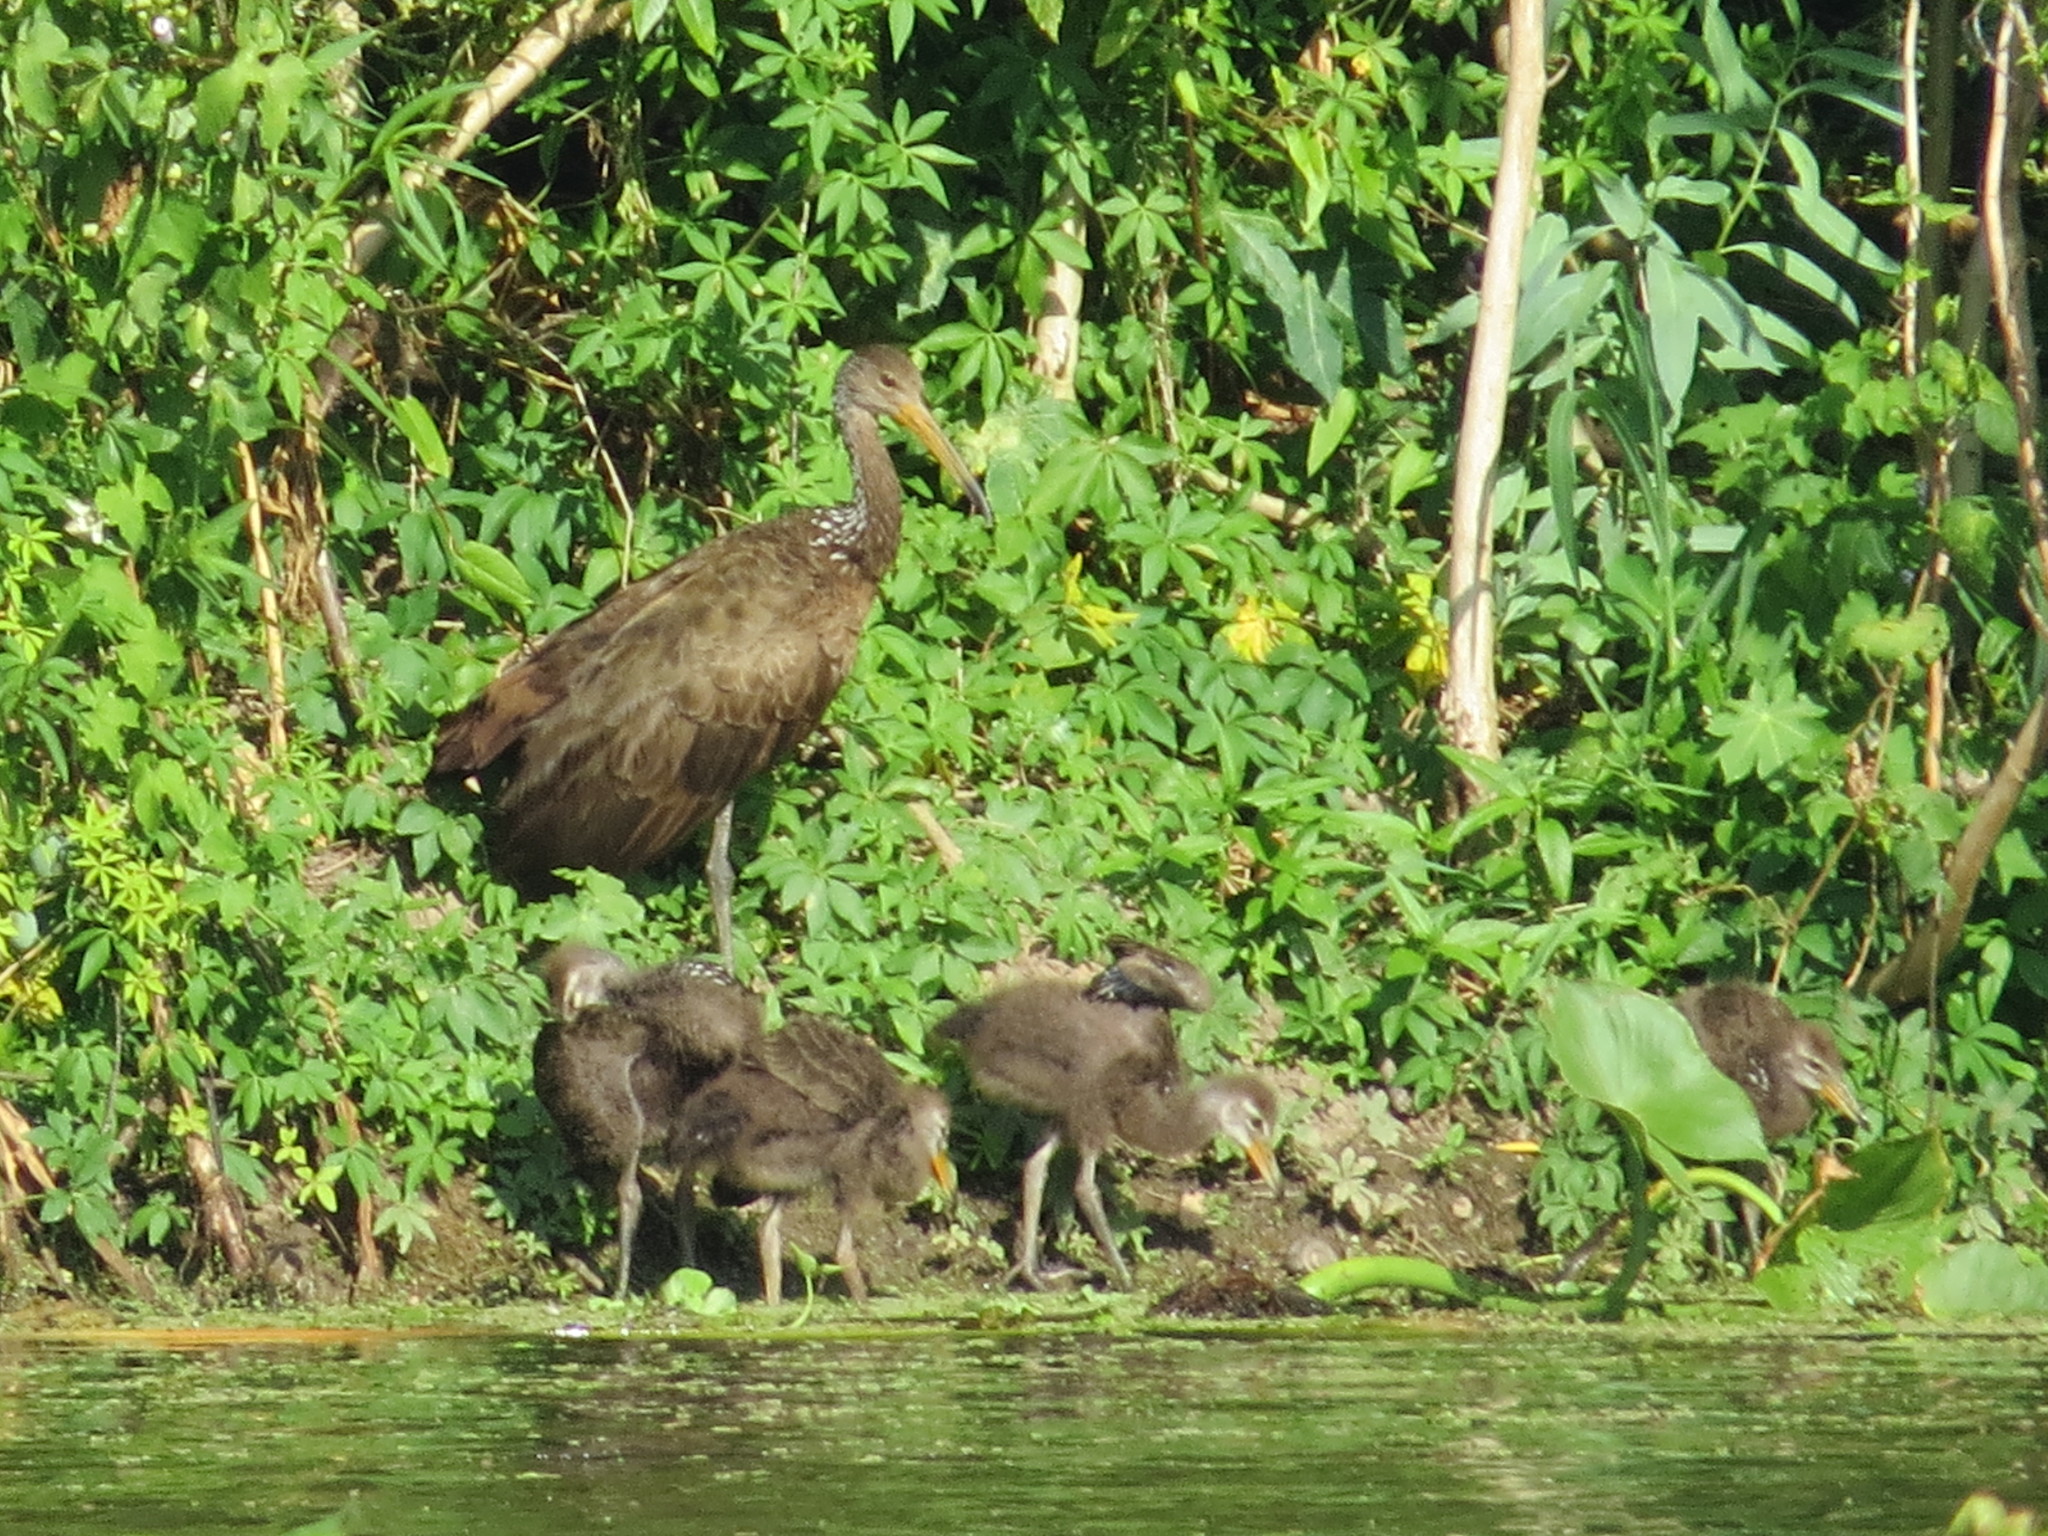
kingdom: Animalia
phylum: Chordata
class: Aves
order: Gruiformes
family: Aramidae
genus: Aramus
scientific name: Aramus guarauna
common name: Limpkin
